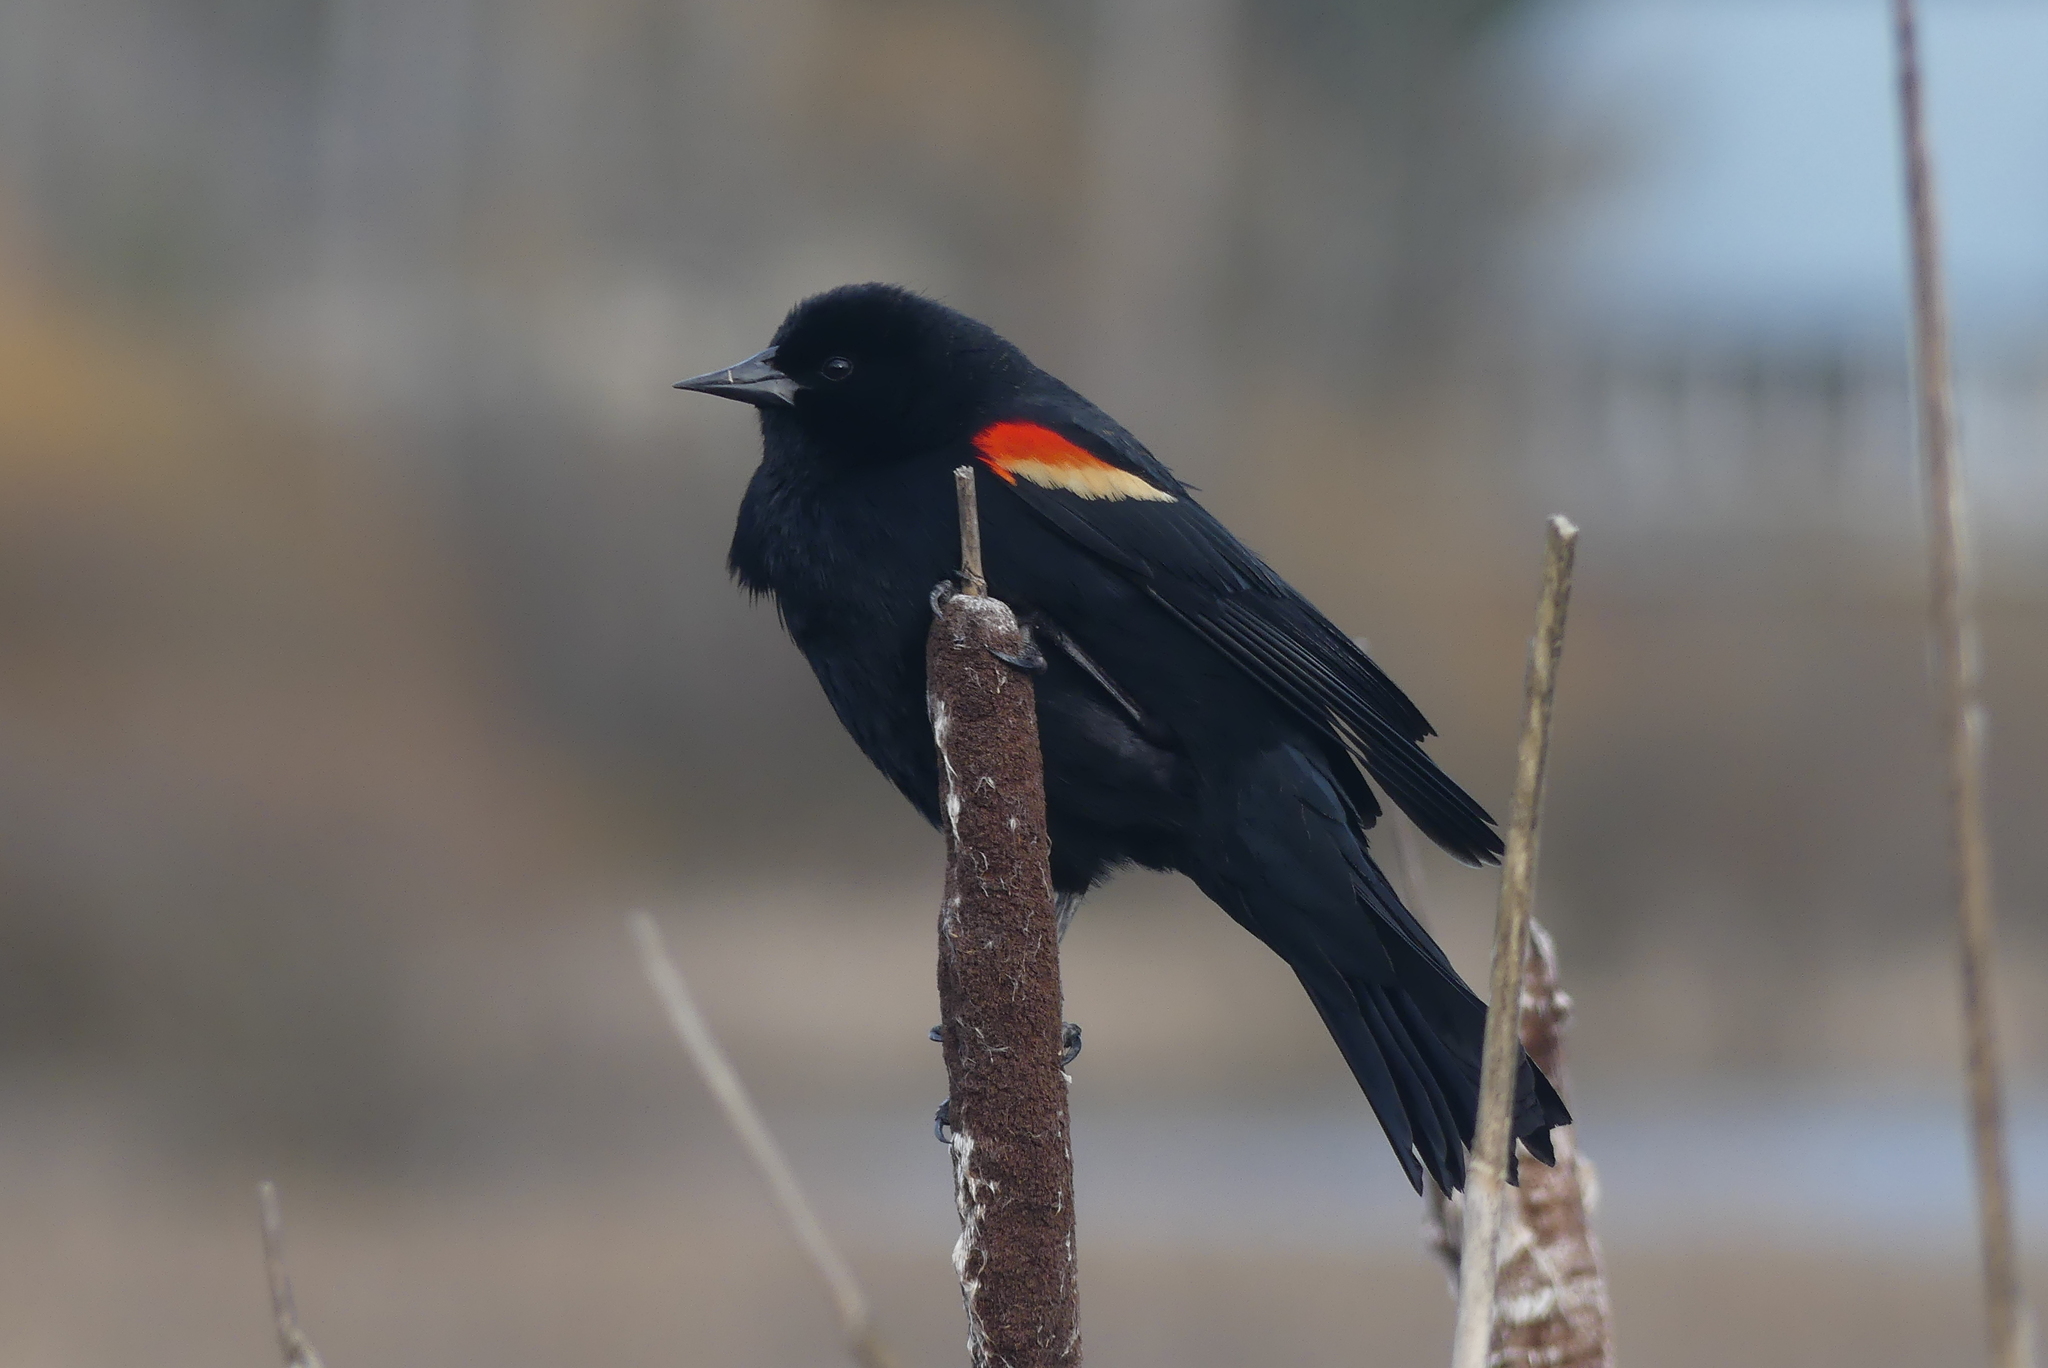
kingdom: Animalia
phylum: Chordata
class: Aves
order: Passeriformes
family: Icteridae
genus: Agelaius
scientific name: Agelaius phoeniceus
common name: Red-winged blackbird
